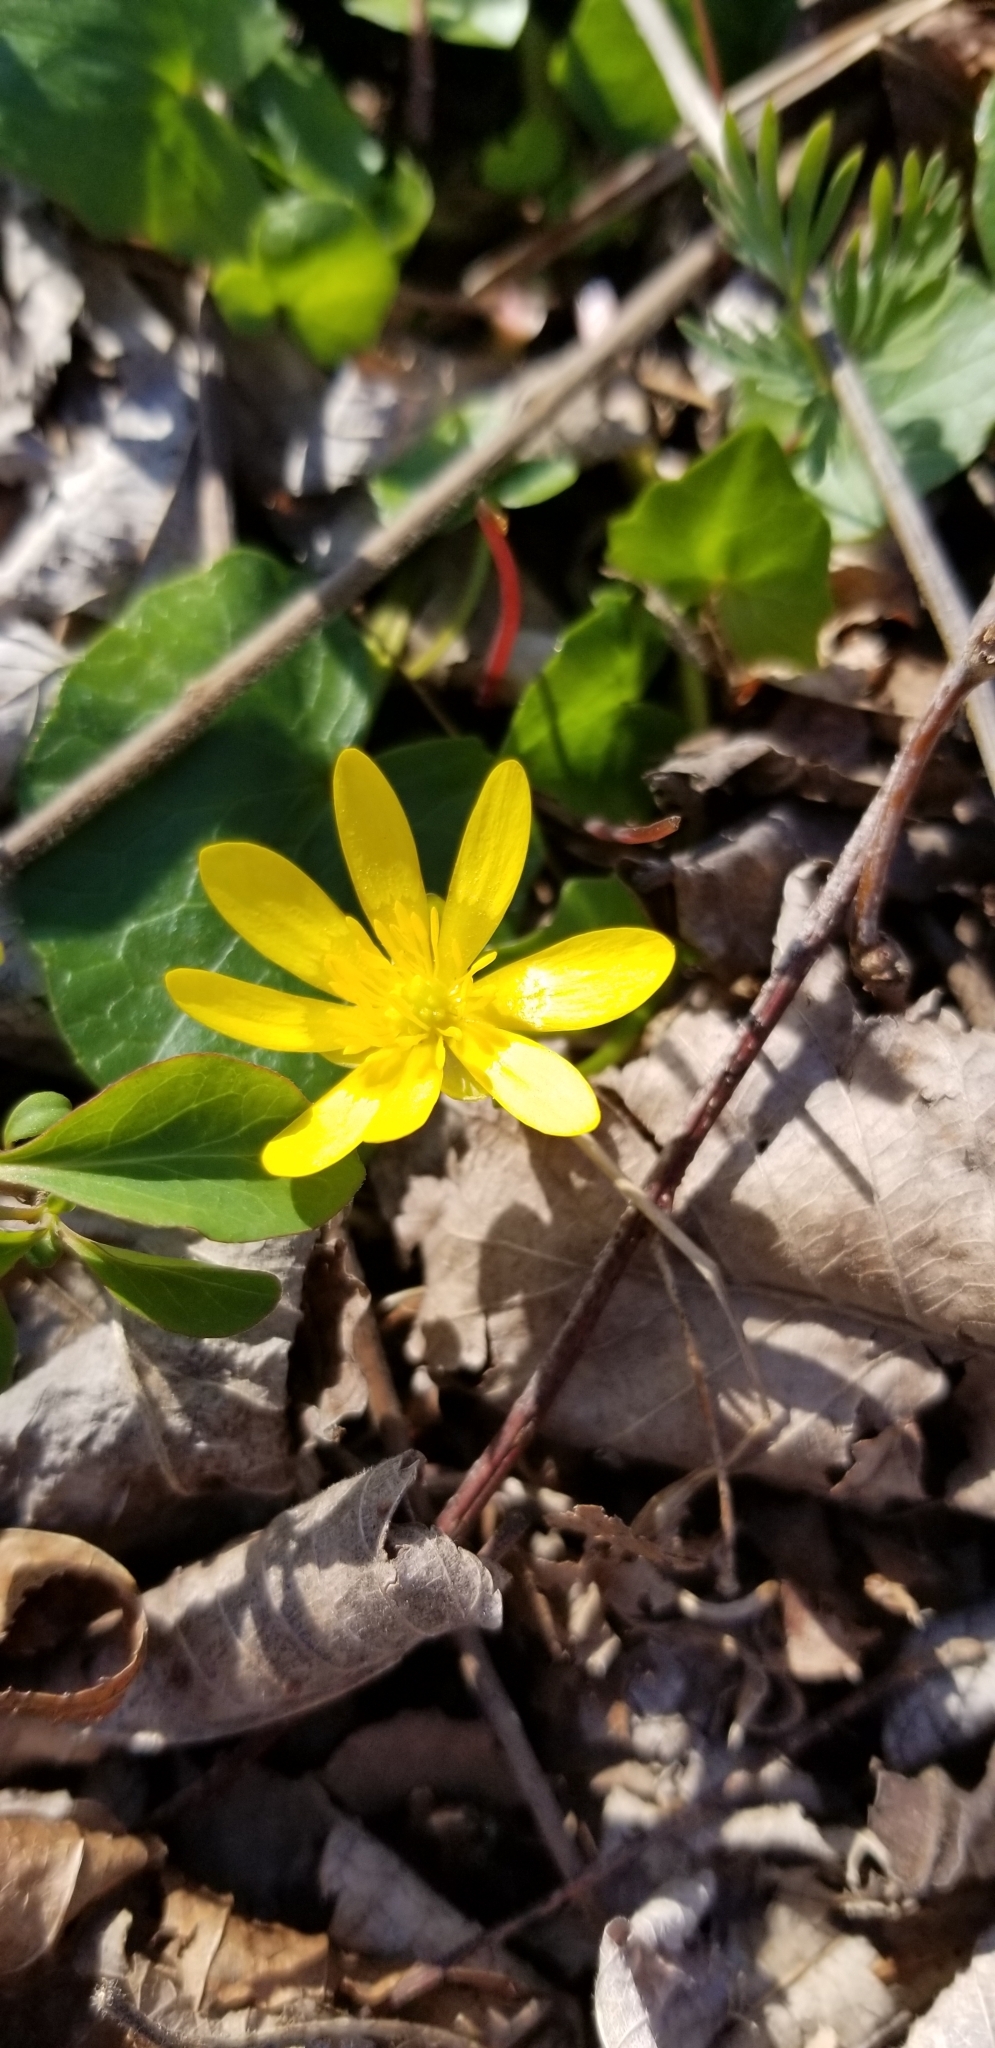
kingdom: Plantae
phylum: Tracheophyta
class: Magnoliopsida
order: Ranunculales
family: Ranunculaceae
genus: Ficaria
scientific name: Ficaria verna
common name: Lesser celandine
